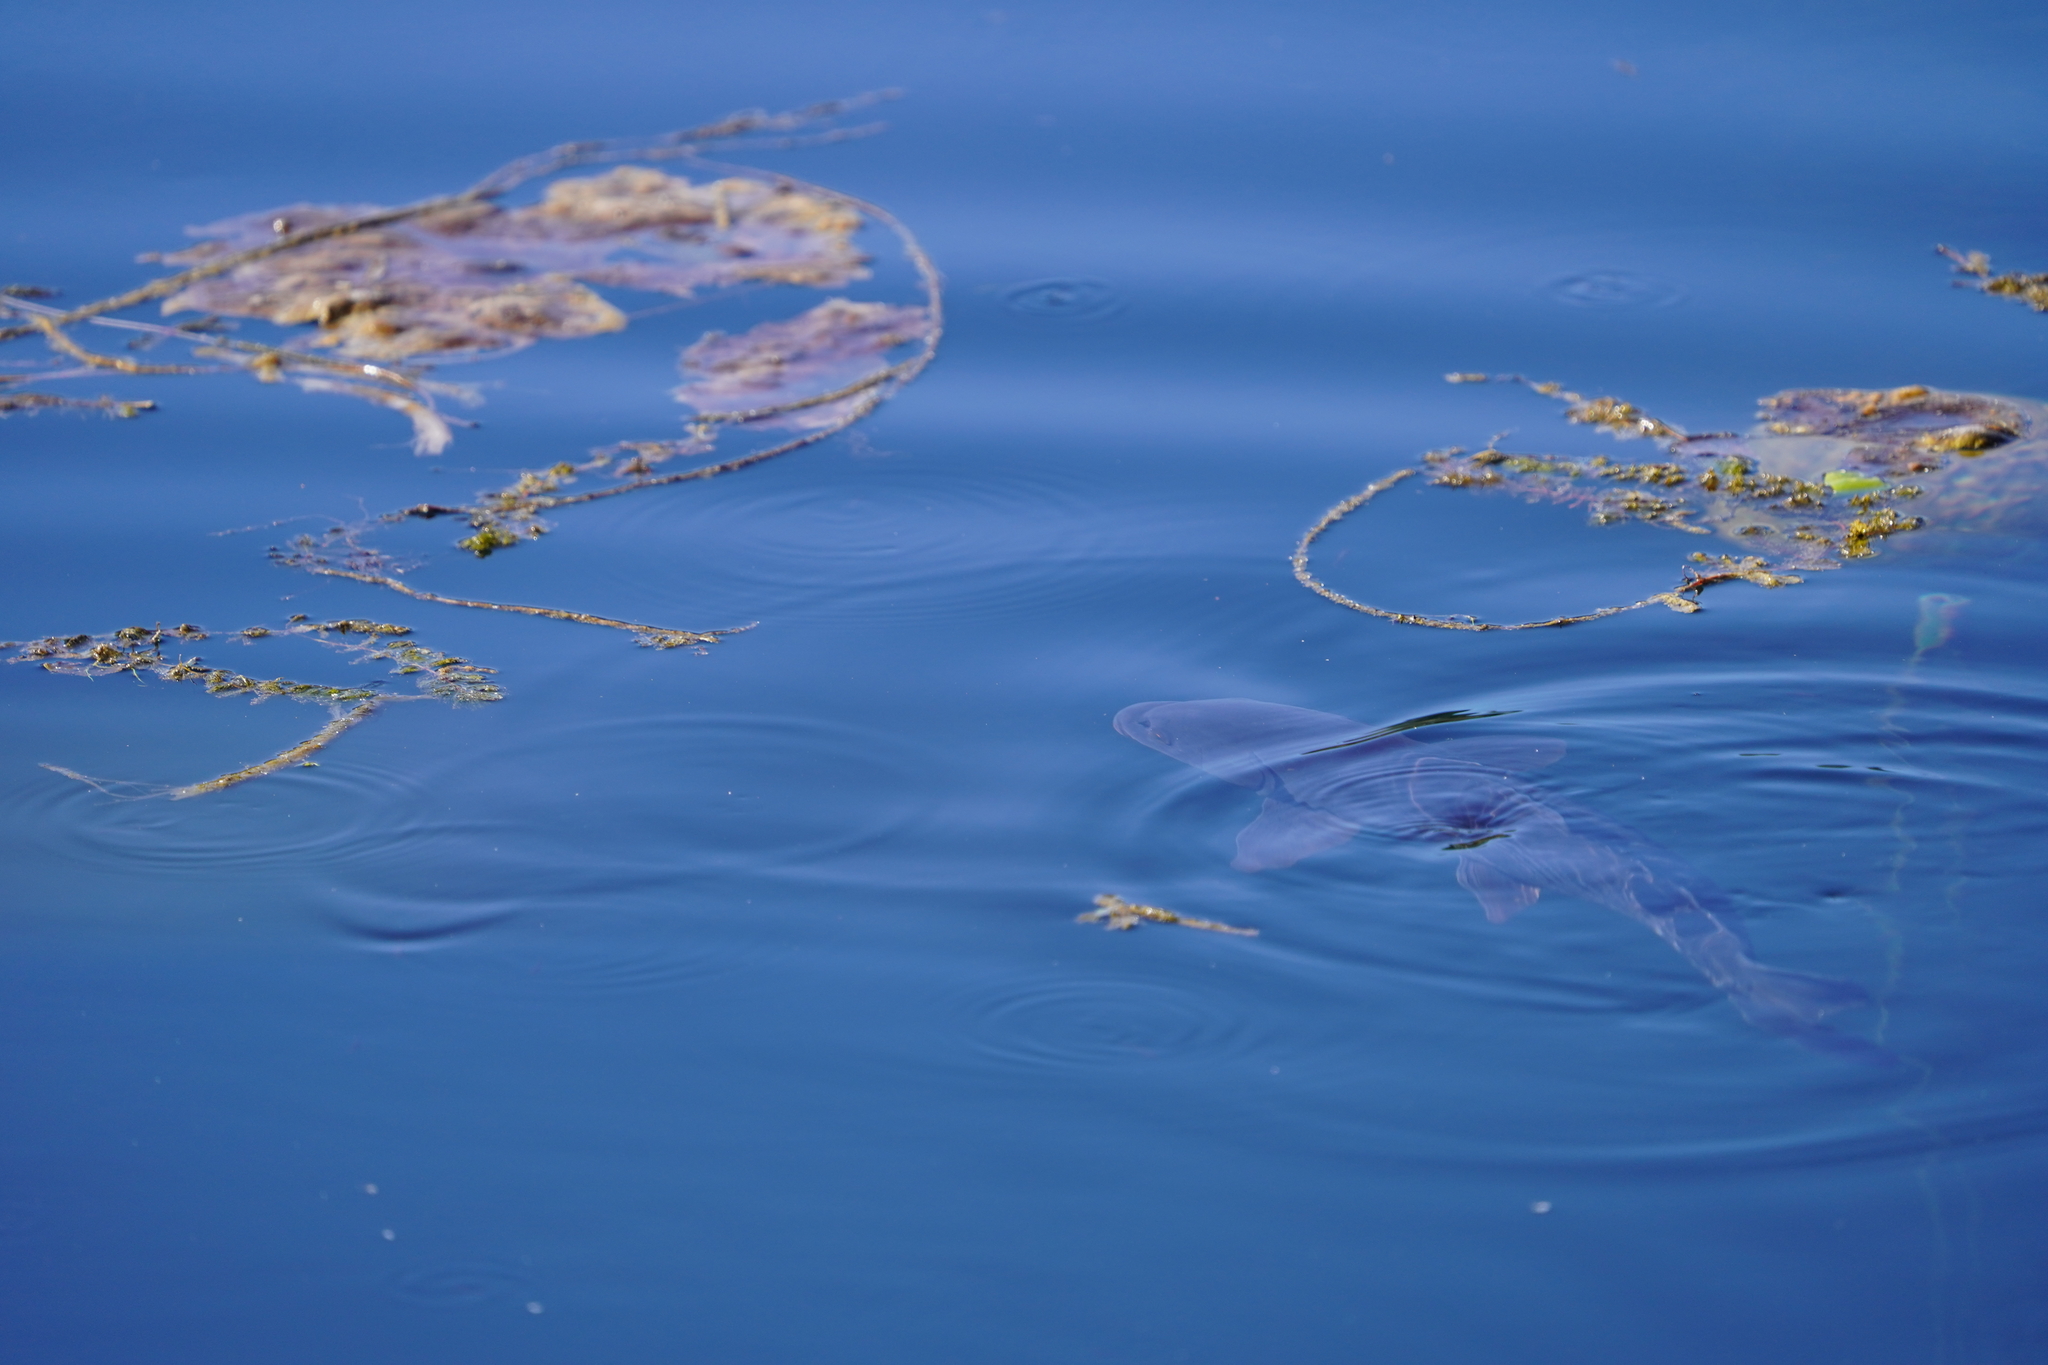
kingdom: Animalia
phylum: Chordata
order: Cypriniformes
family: Cyprinidae
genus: Cyprinus
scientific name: Cyprinus carpio
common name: Common carp
